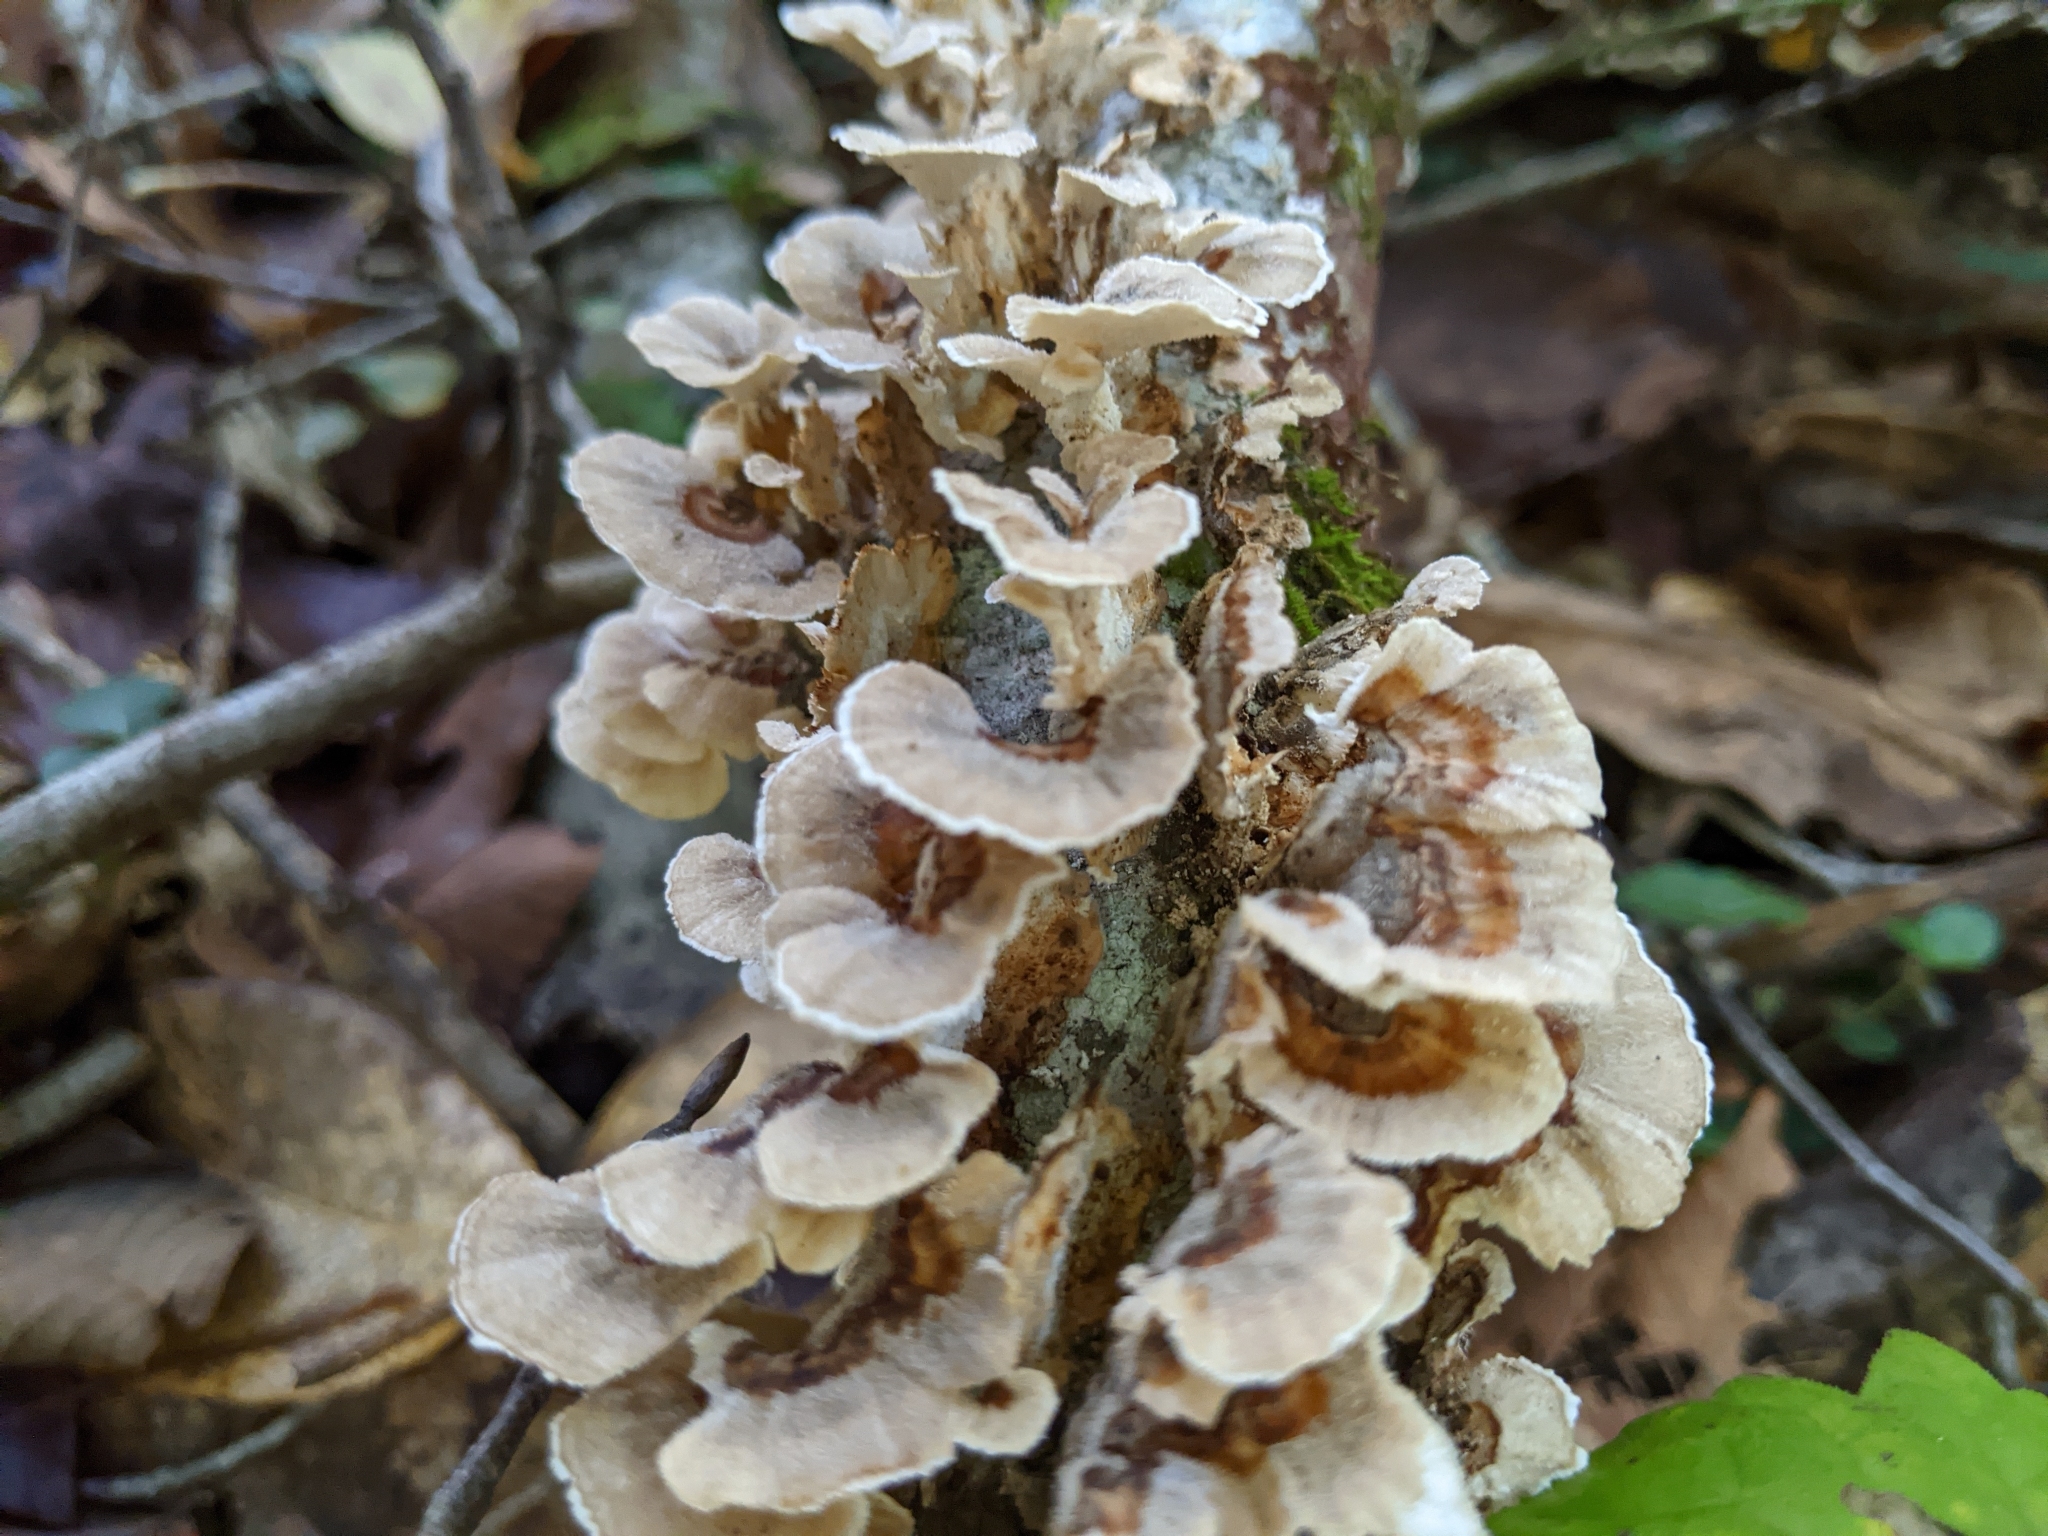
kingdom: Fungi
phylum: Basidiomycota
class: Agaricomycetes
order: Polyporales
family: Polyporaceae
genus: Trametes
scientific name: Trametes versicolor
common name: Turkeytail
